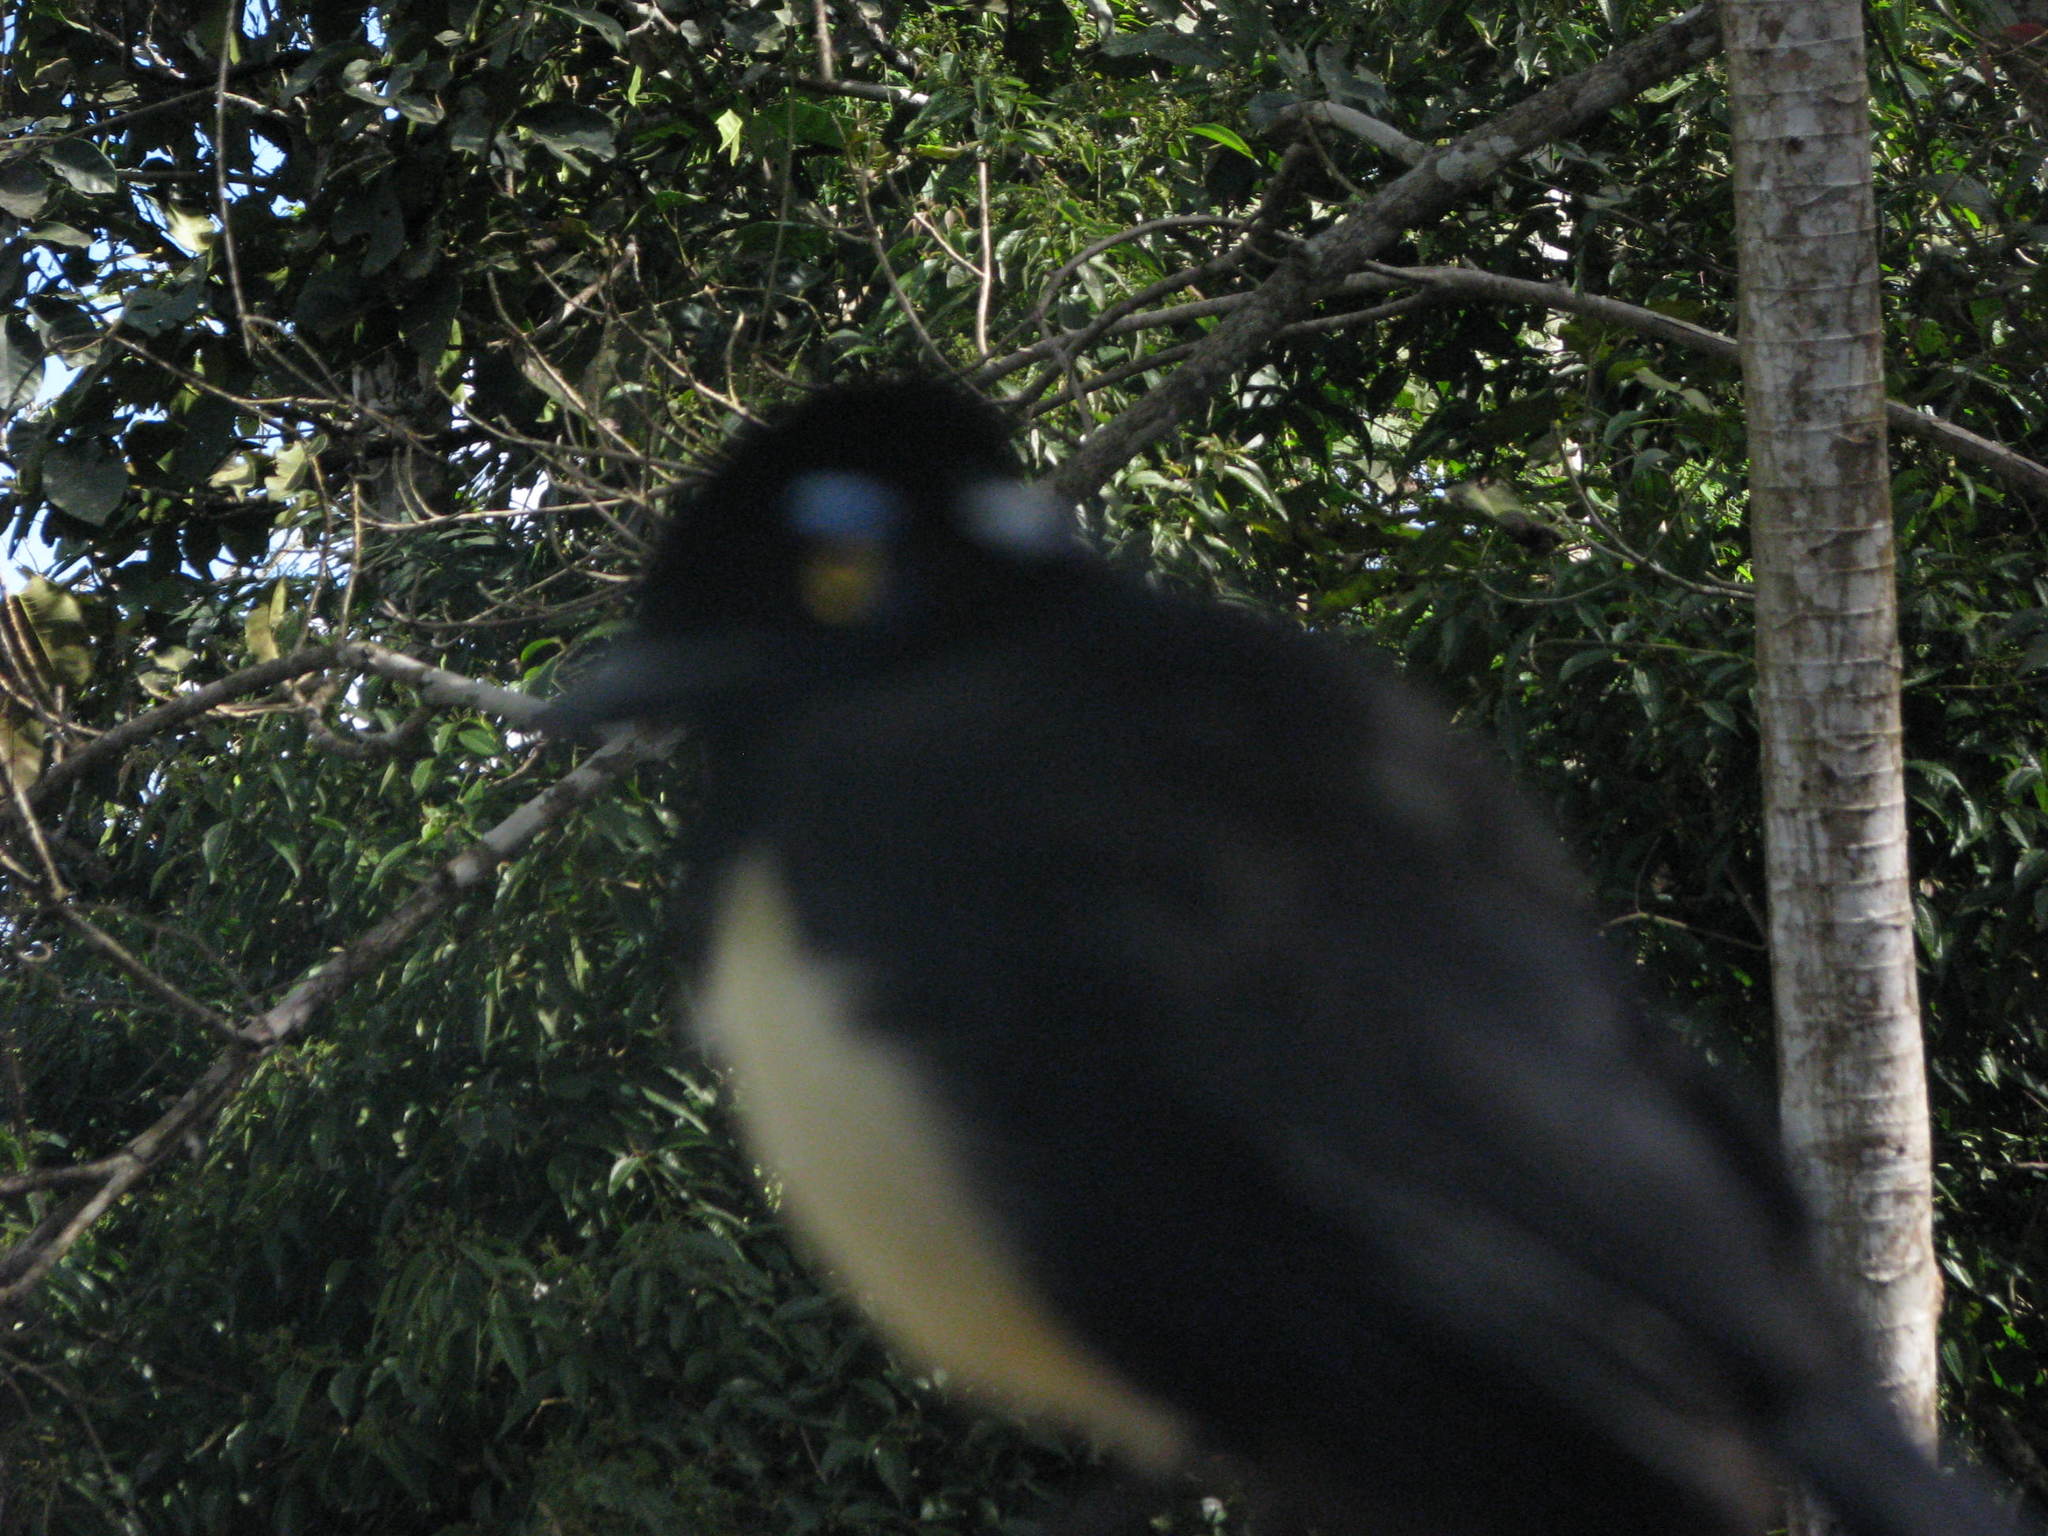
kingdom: Animalia
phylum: Chordata
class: Aves
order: Passeriformes
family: Corvidae
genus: Cyanocorax
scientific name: Cyanocorax chrysops
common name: Plush-crested jay
